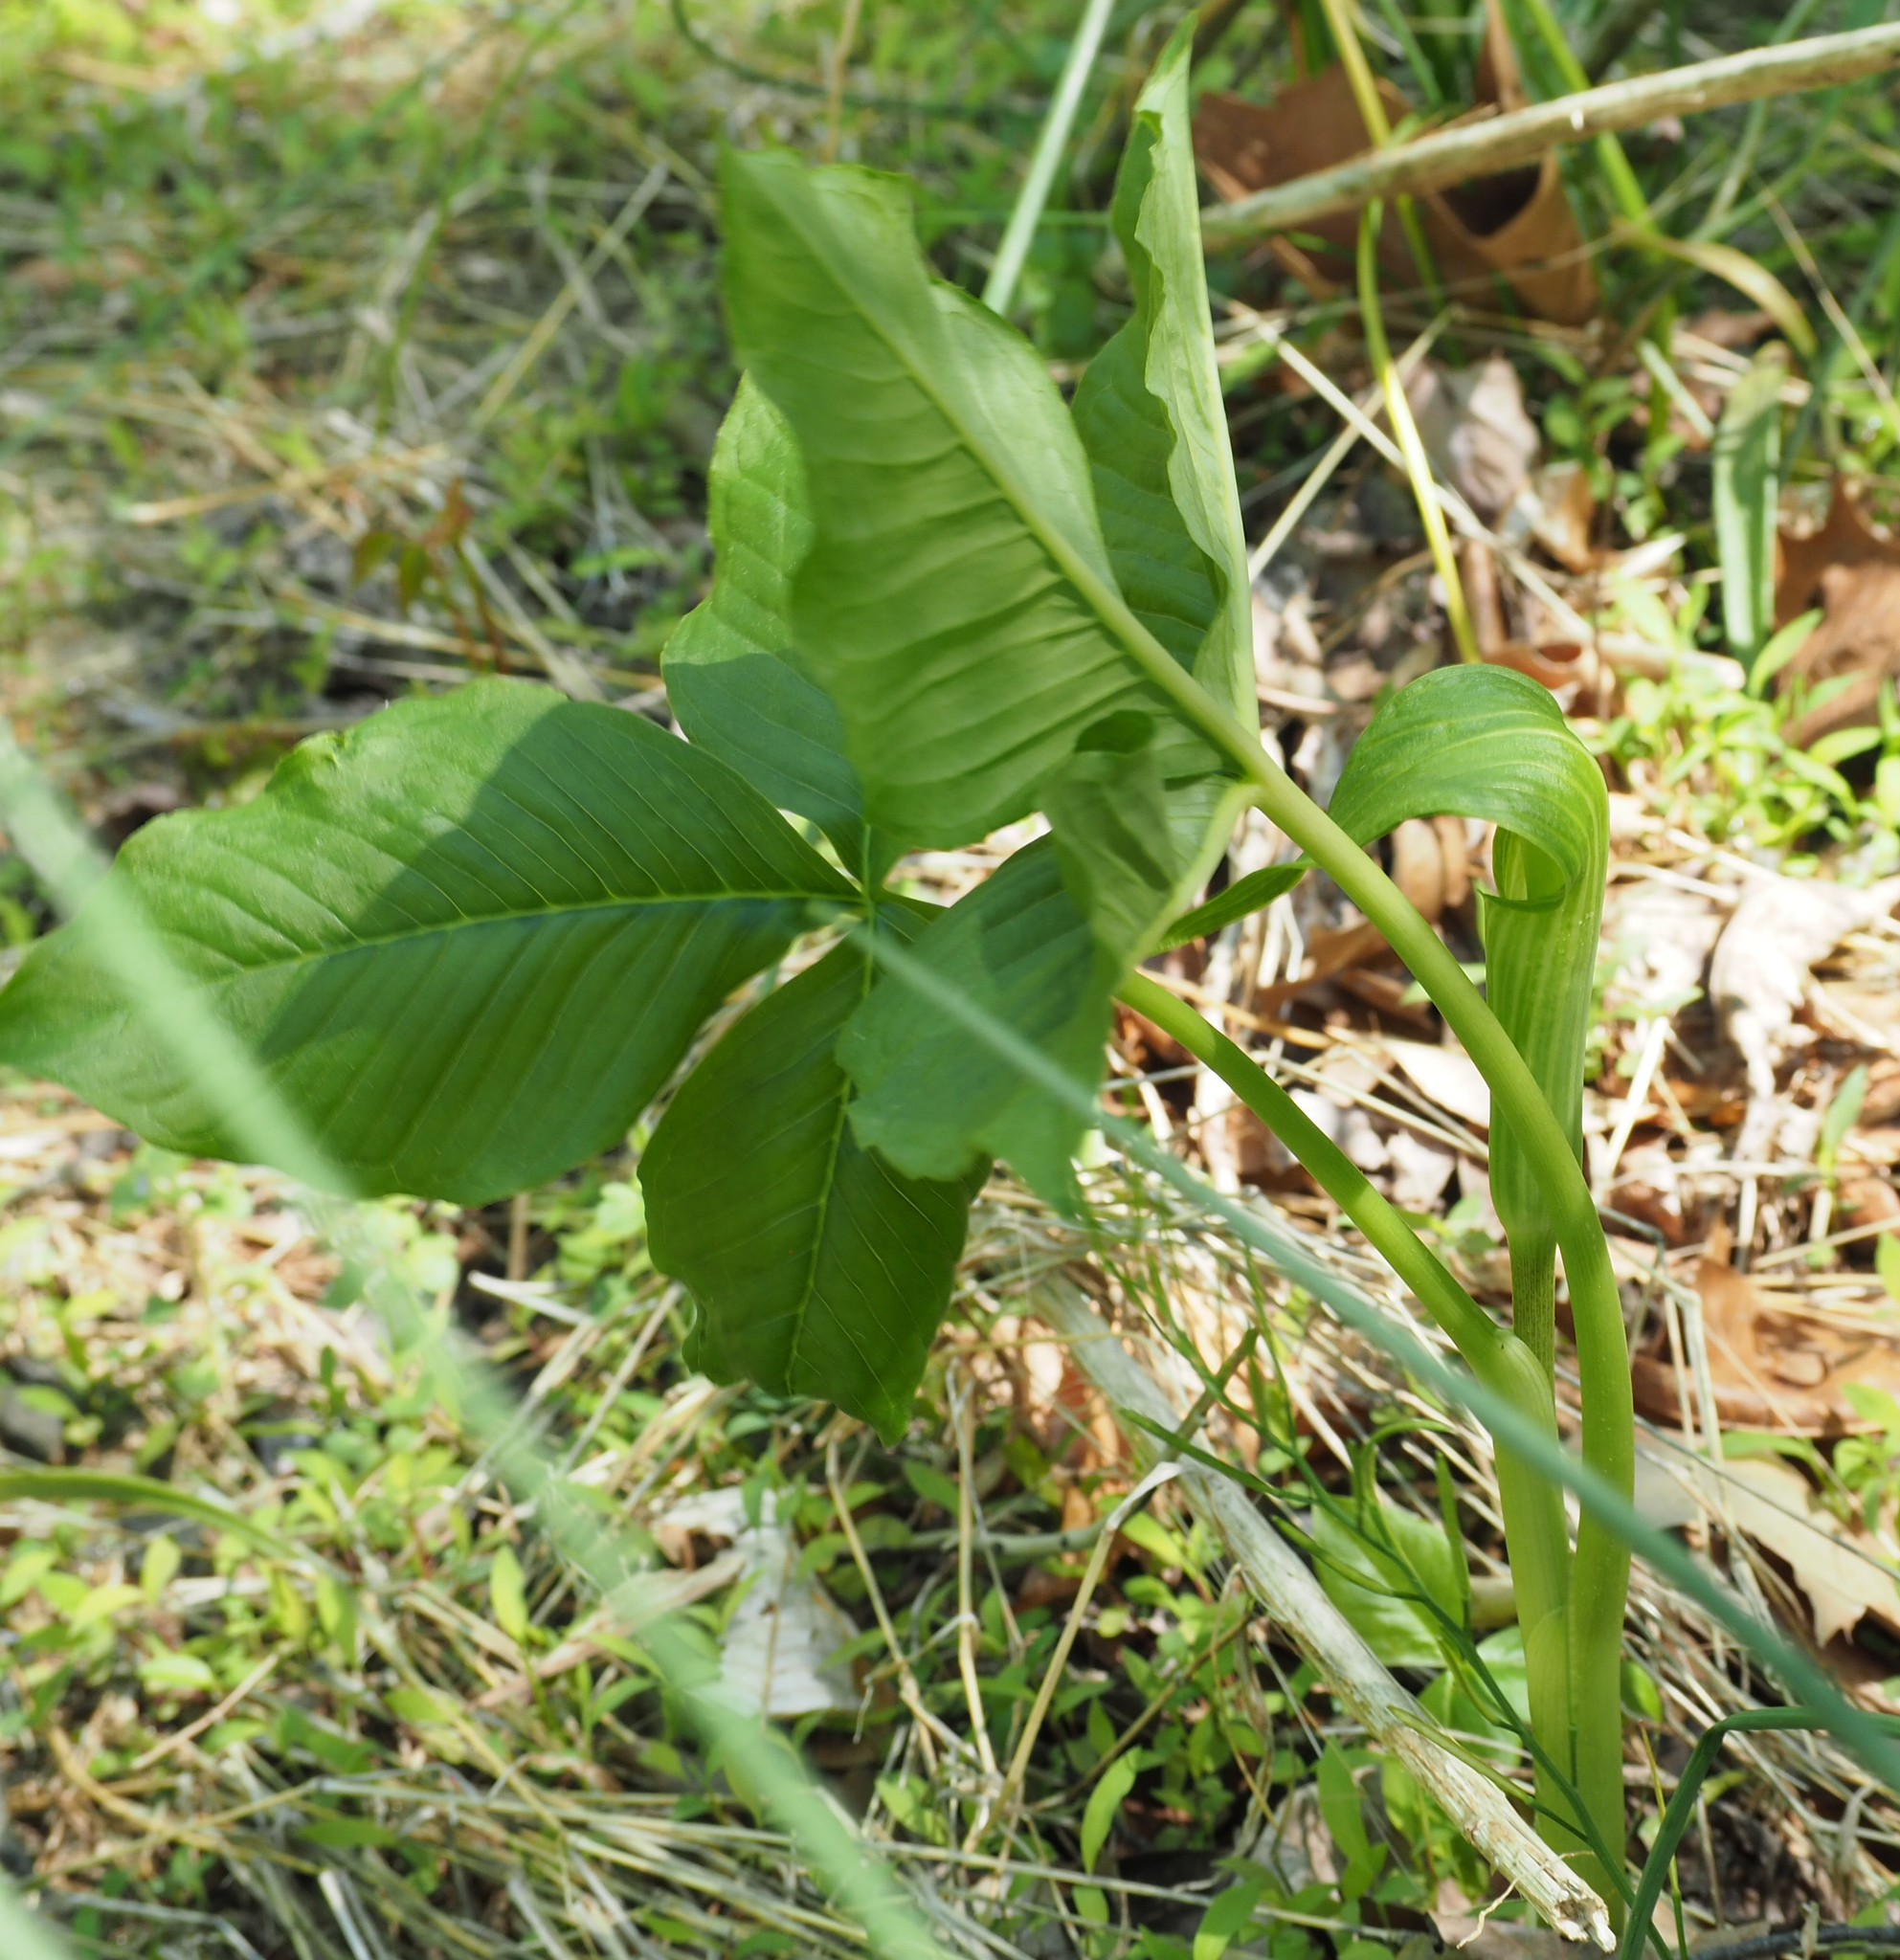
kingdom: Plantae
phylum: Tracheophyta
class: Liliopsida
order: Alismatales
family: Araceae
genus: Arisaema
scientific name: Arisaema triphyllum
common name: Jack-in-the-pulpit
